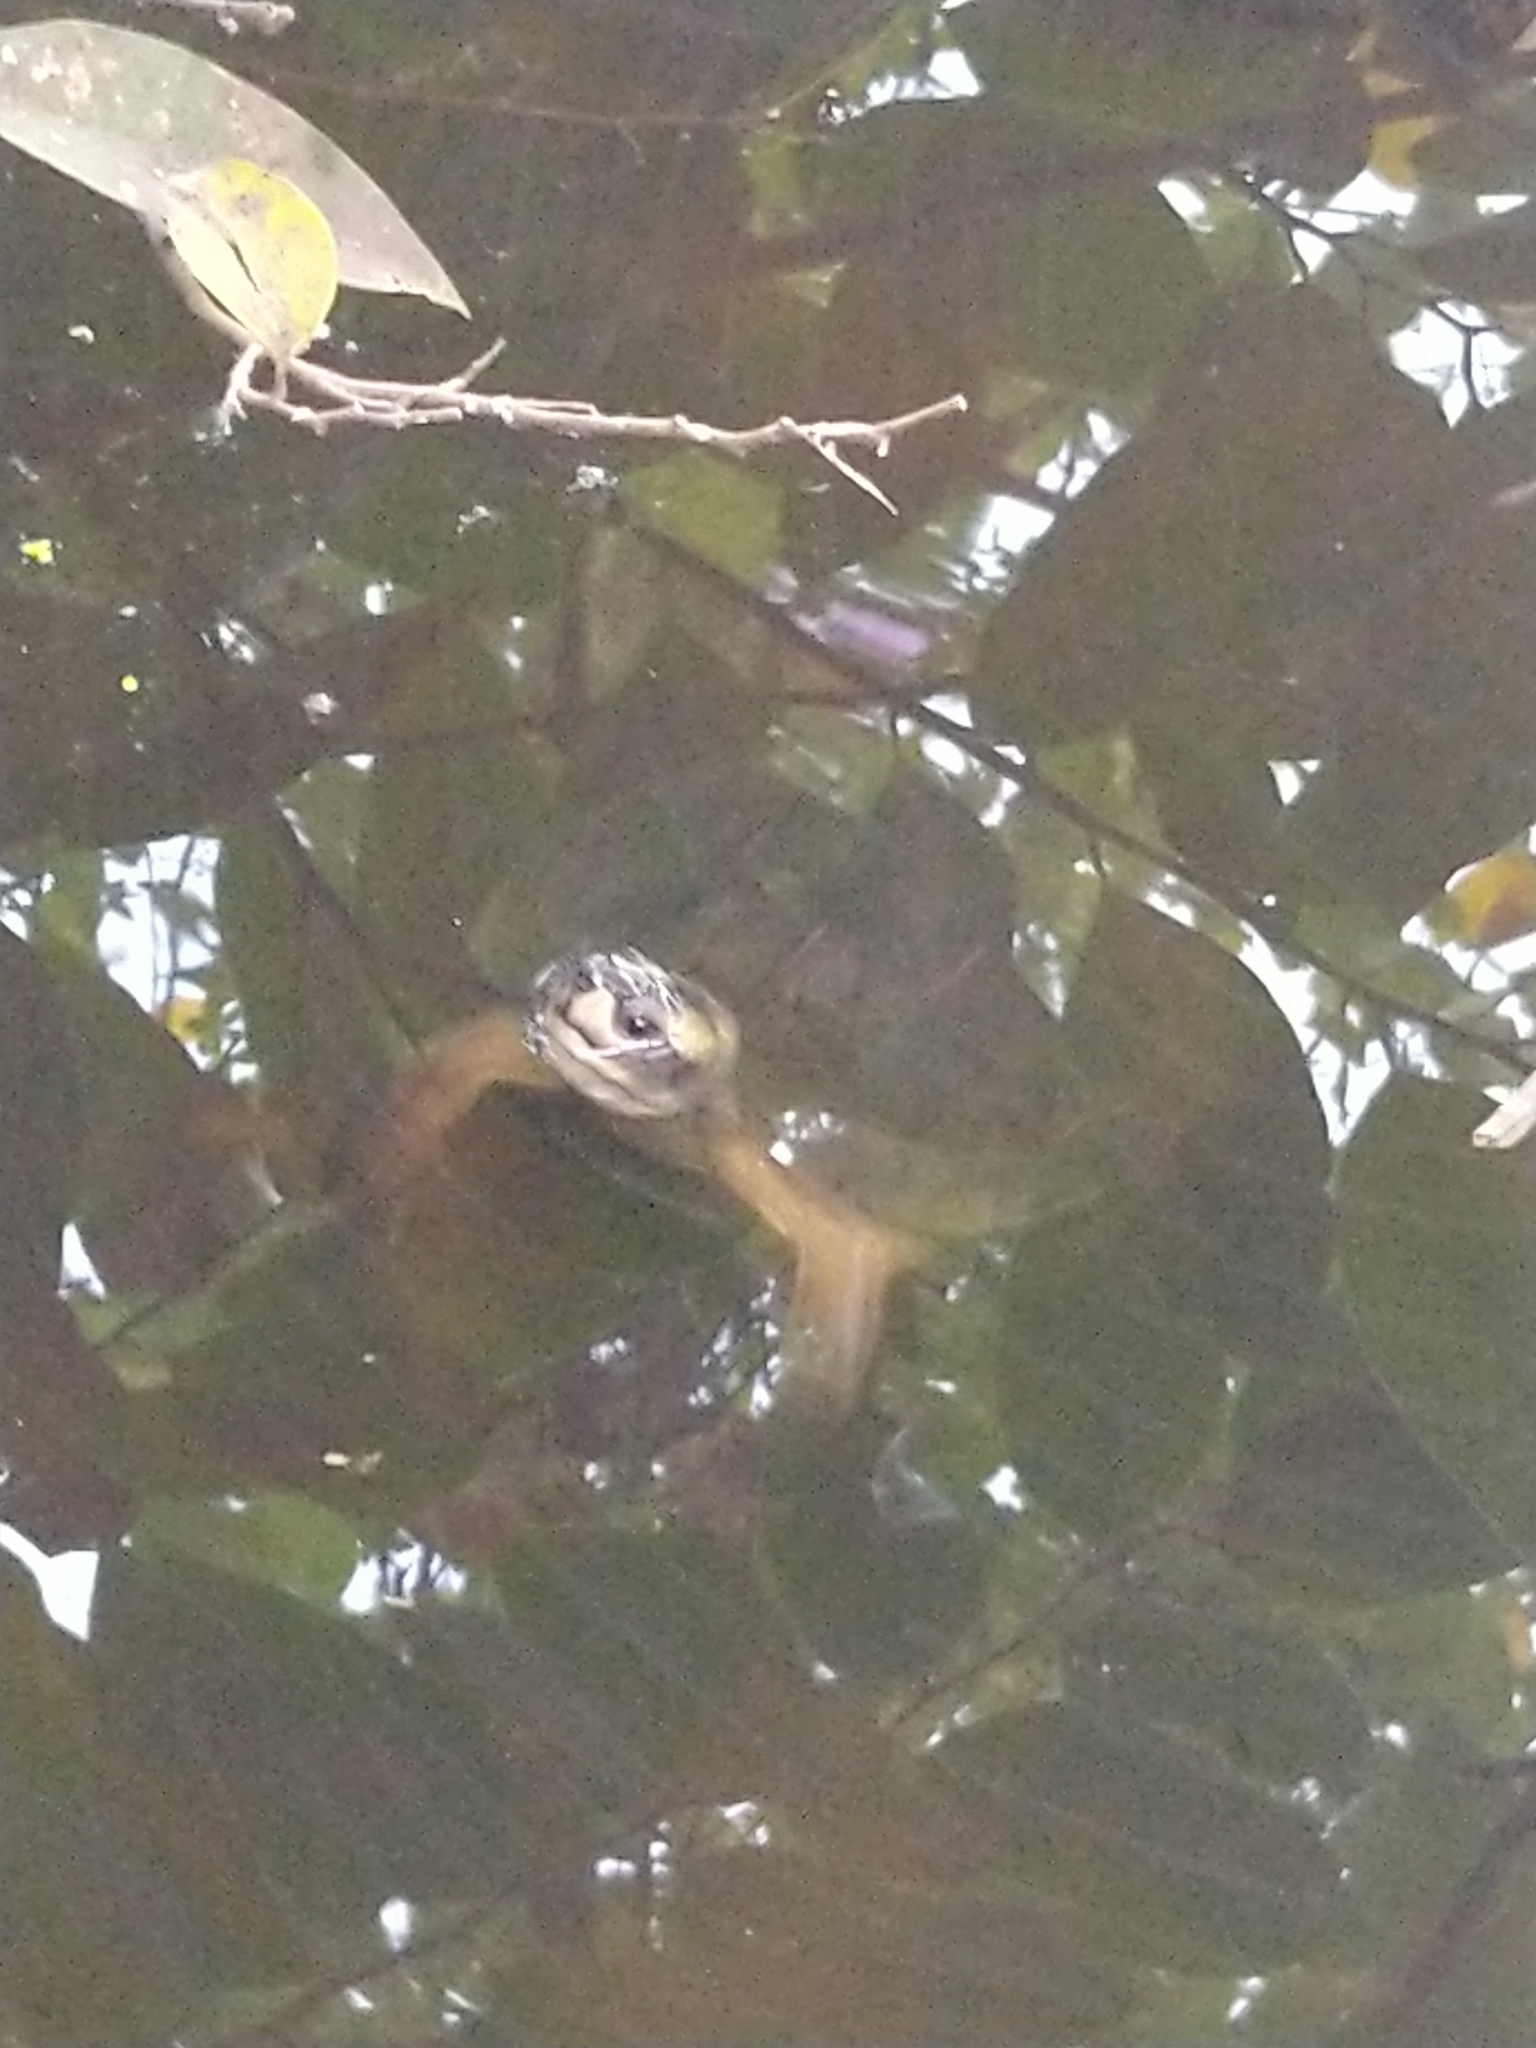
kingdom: Animalia
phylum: Chordata
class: Testudines
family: Geoemydidae
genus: Melanochelys
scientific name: Melanochelys trijuga
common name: Indian black turtle
